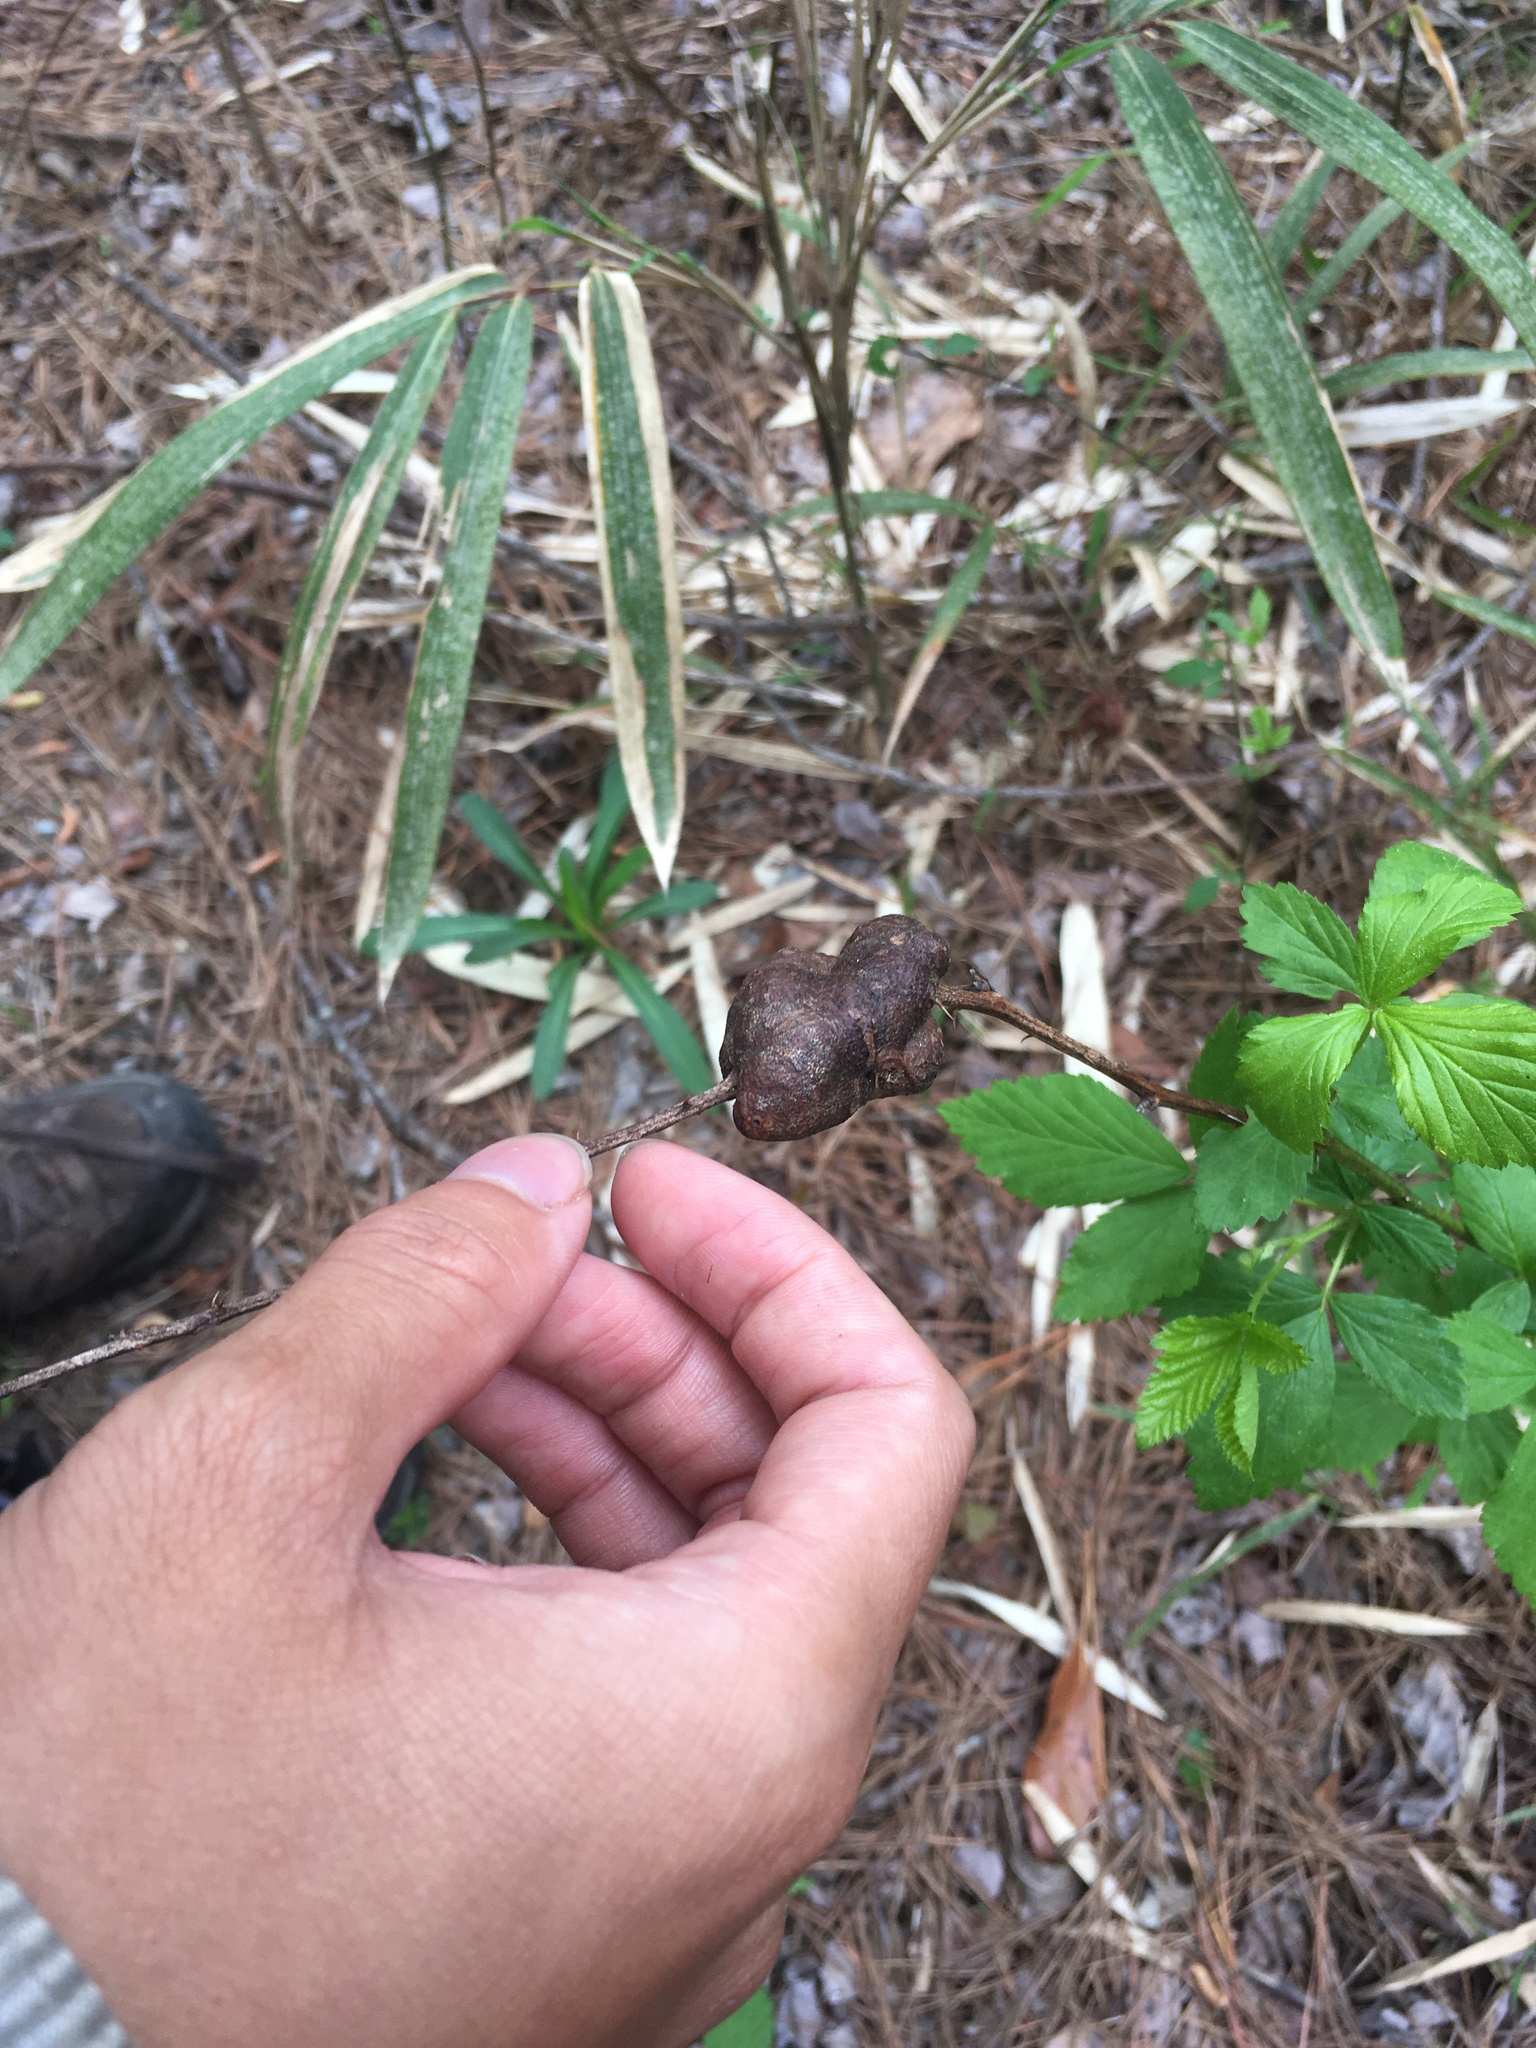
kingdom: Animalia
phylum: Arthropoda
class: Insecta
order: Hymenoptera
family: Cynipidae
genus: Diastrophus
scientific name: Diastrophus
